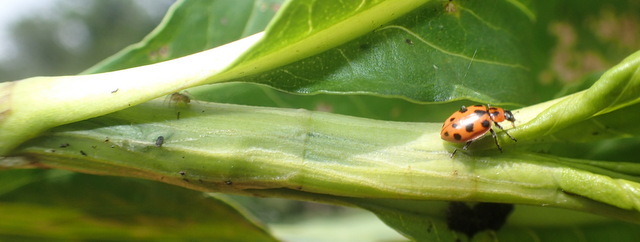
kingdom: Animalia
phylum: Arthropoda
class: Insecta
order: Coleoptera
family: Coccinellidae
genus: Coleomegilla
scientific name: Coleomegilla maculata
